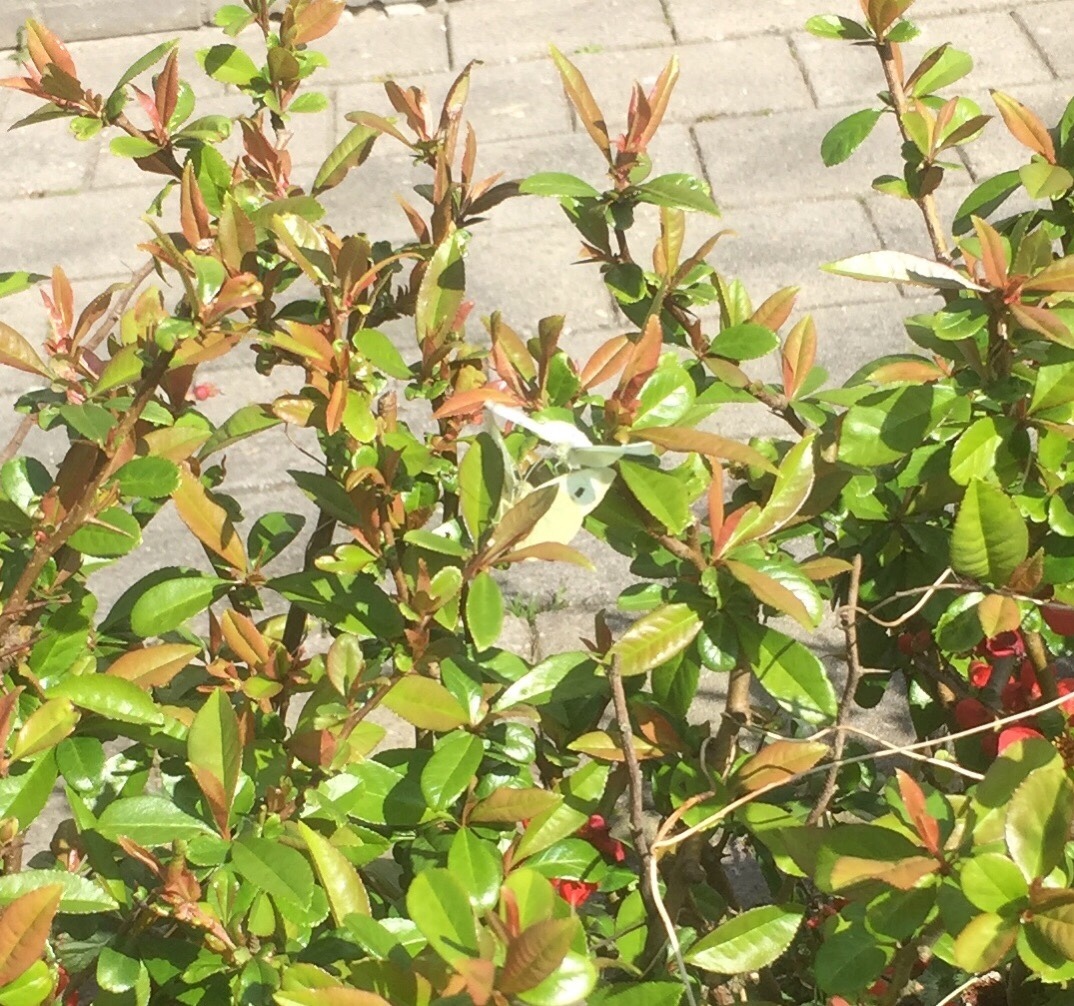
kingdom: Animalia
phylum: Arthropoda
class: Insecta
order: Lepidoptera
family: Pieridae
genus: Pieris
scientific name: Pieris rapae
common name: Small white
